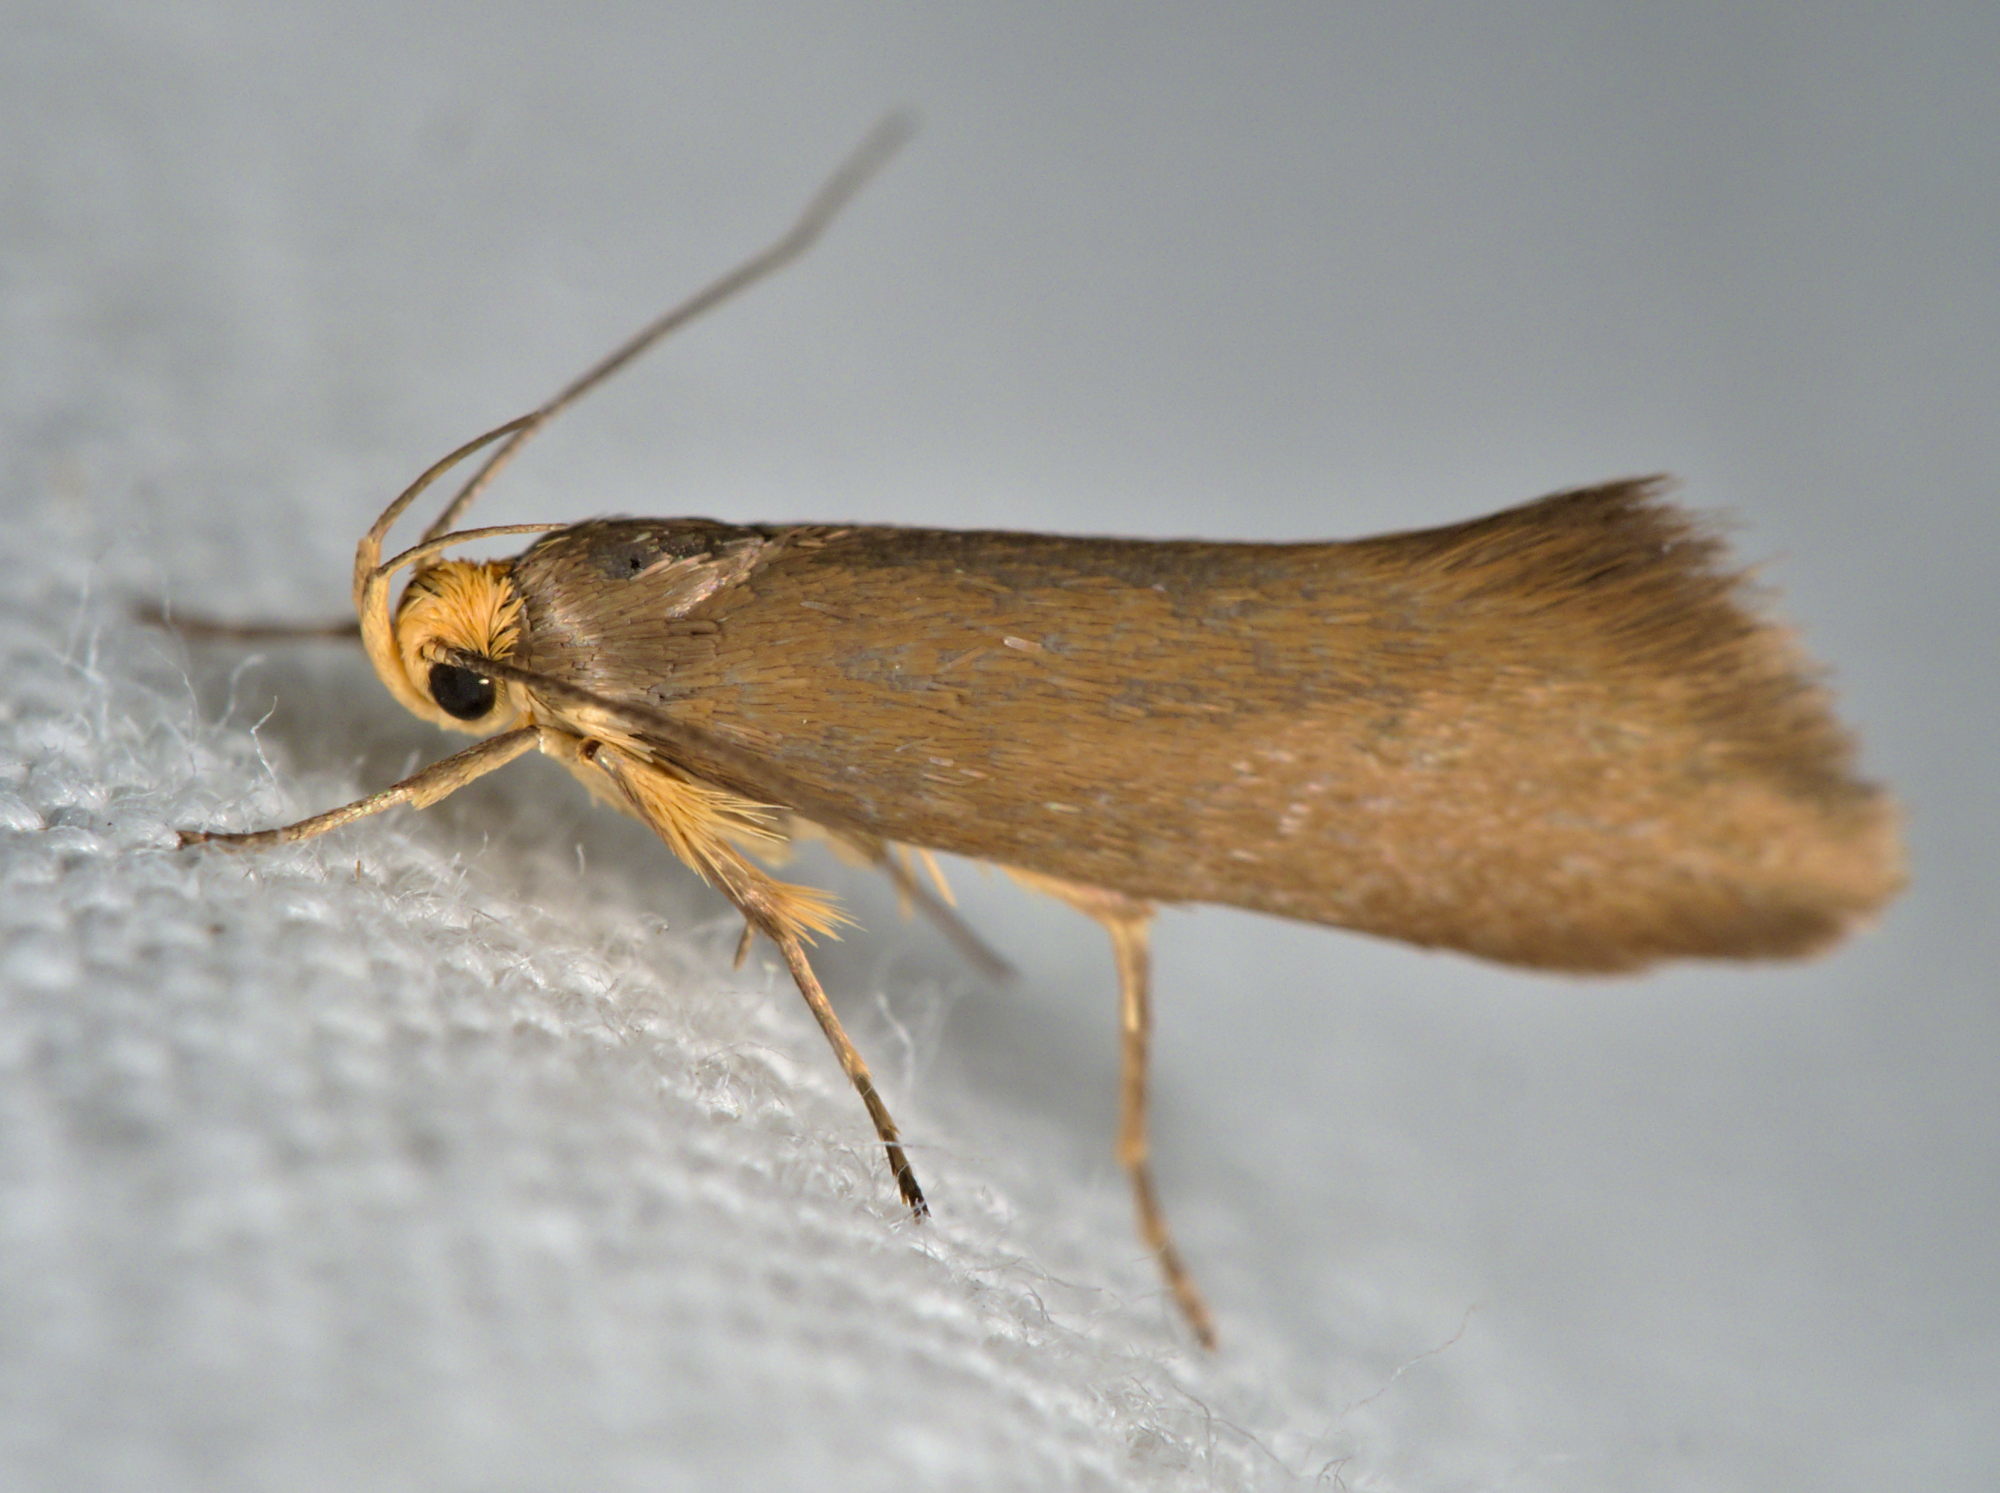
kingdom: Animalia
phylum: Arthropoda
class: Insecta
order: Lepidoptera
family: Oecophoridae
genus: Borkhausenia
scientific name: Borkhausenia Crassa unitella
